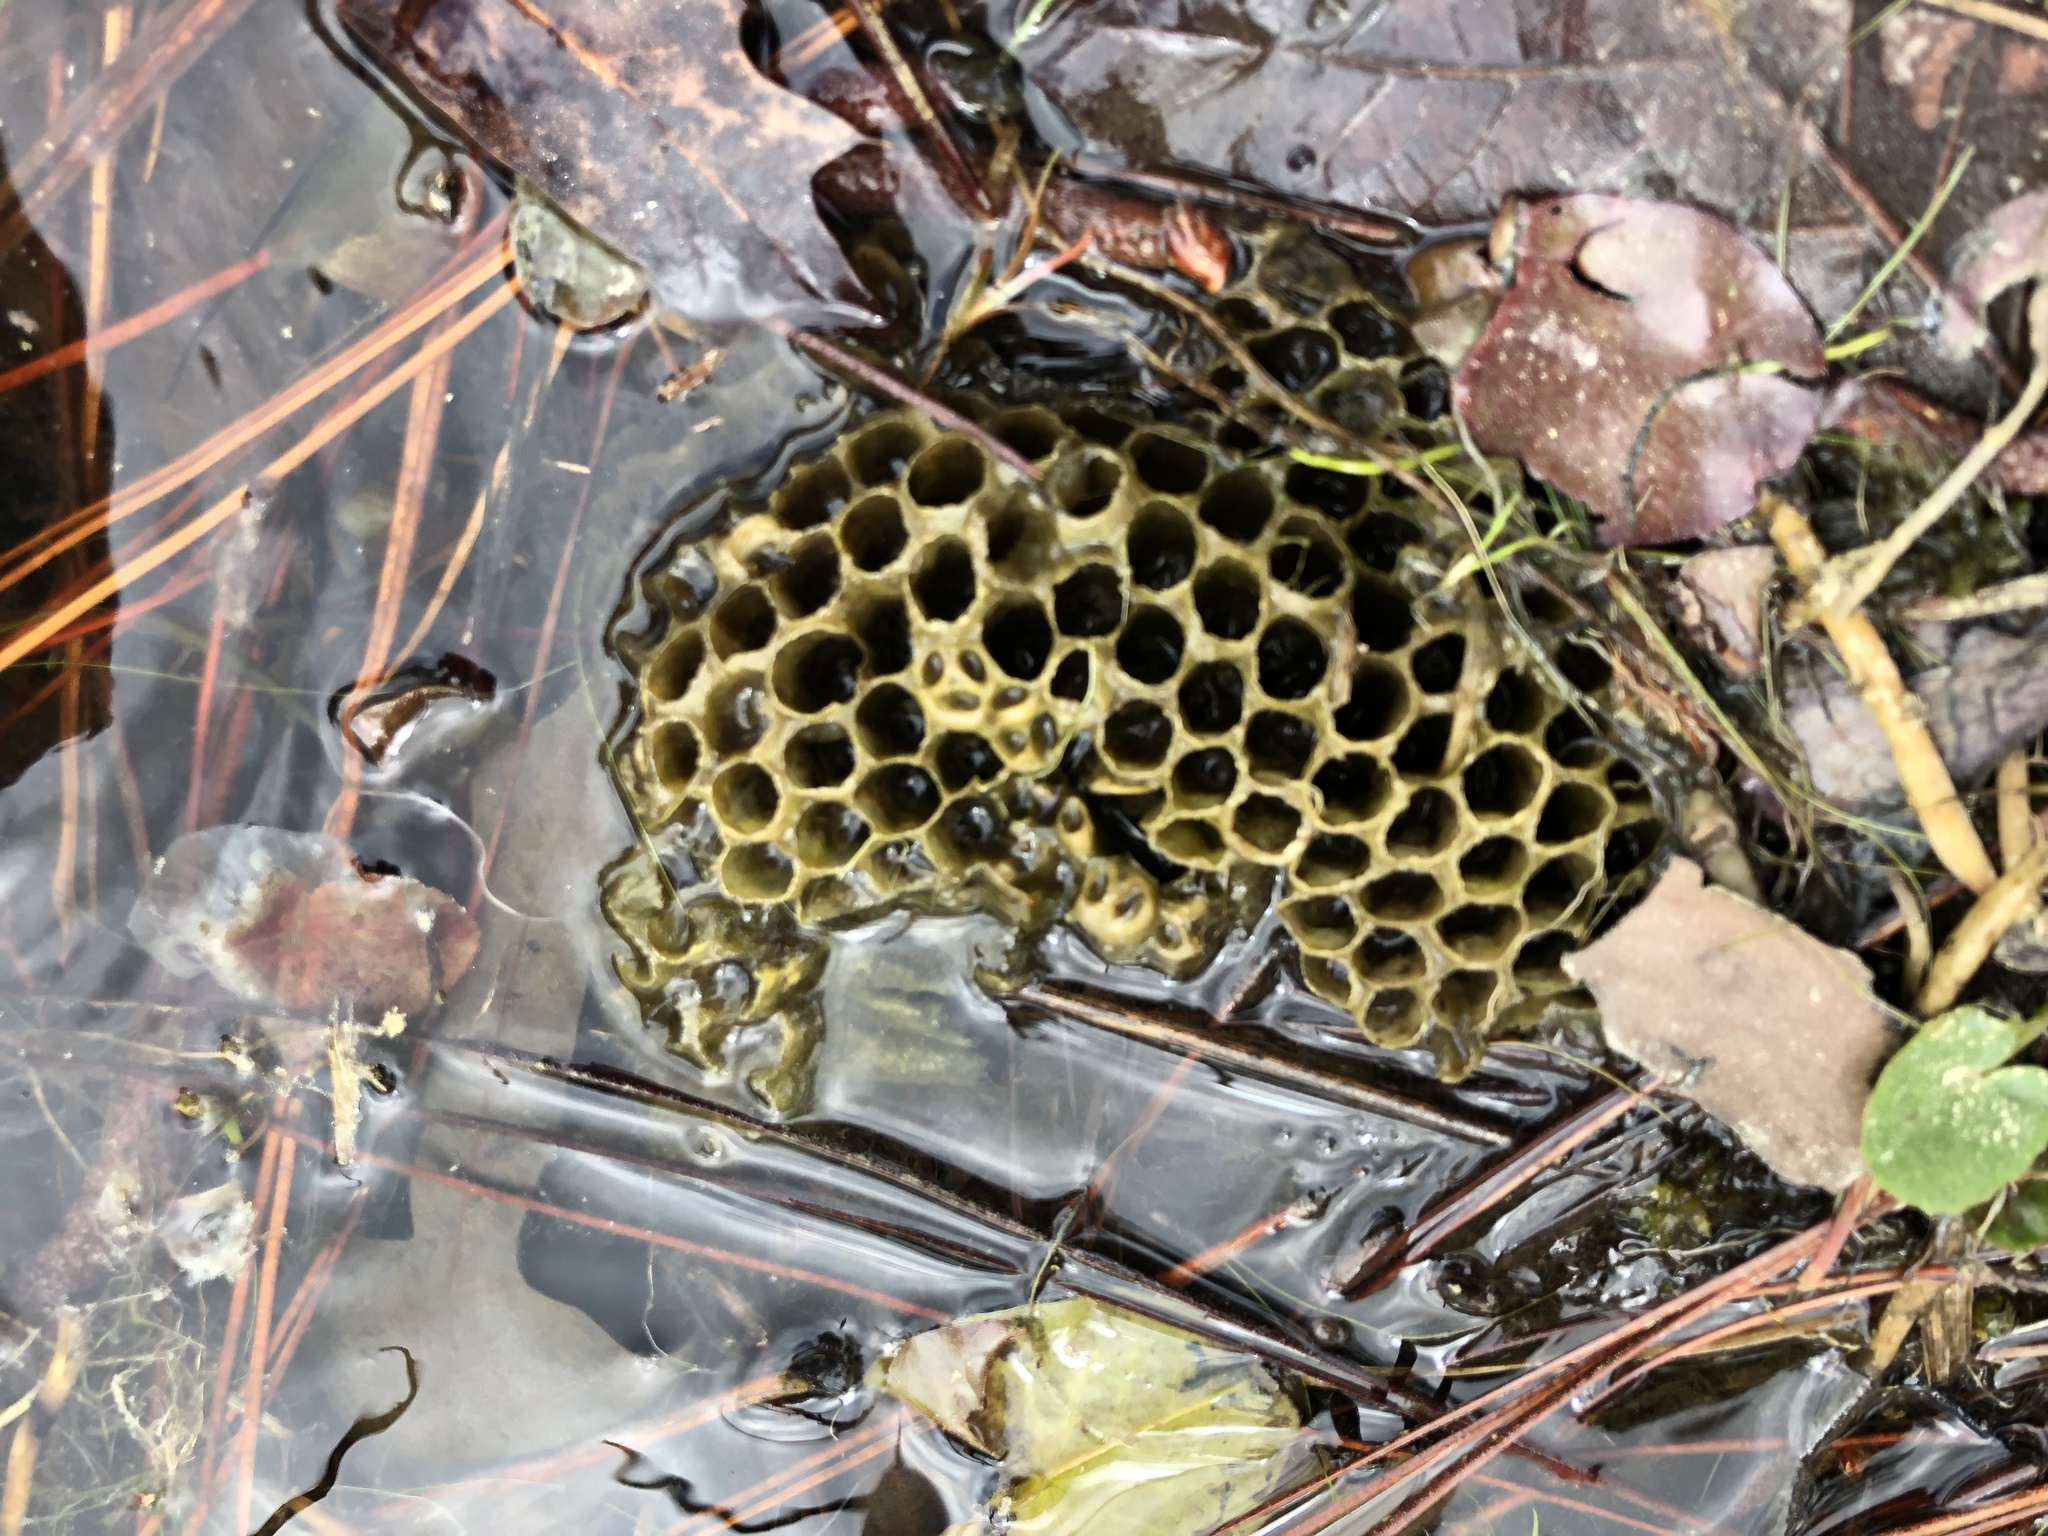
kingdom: Animalia
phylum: Arthropoda
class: Insecta
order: Hymenoptera
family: Eumenidae
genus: Polistes
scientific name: Polistes
